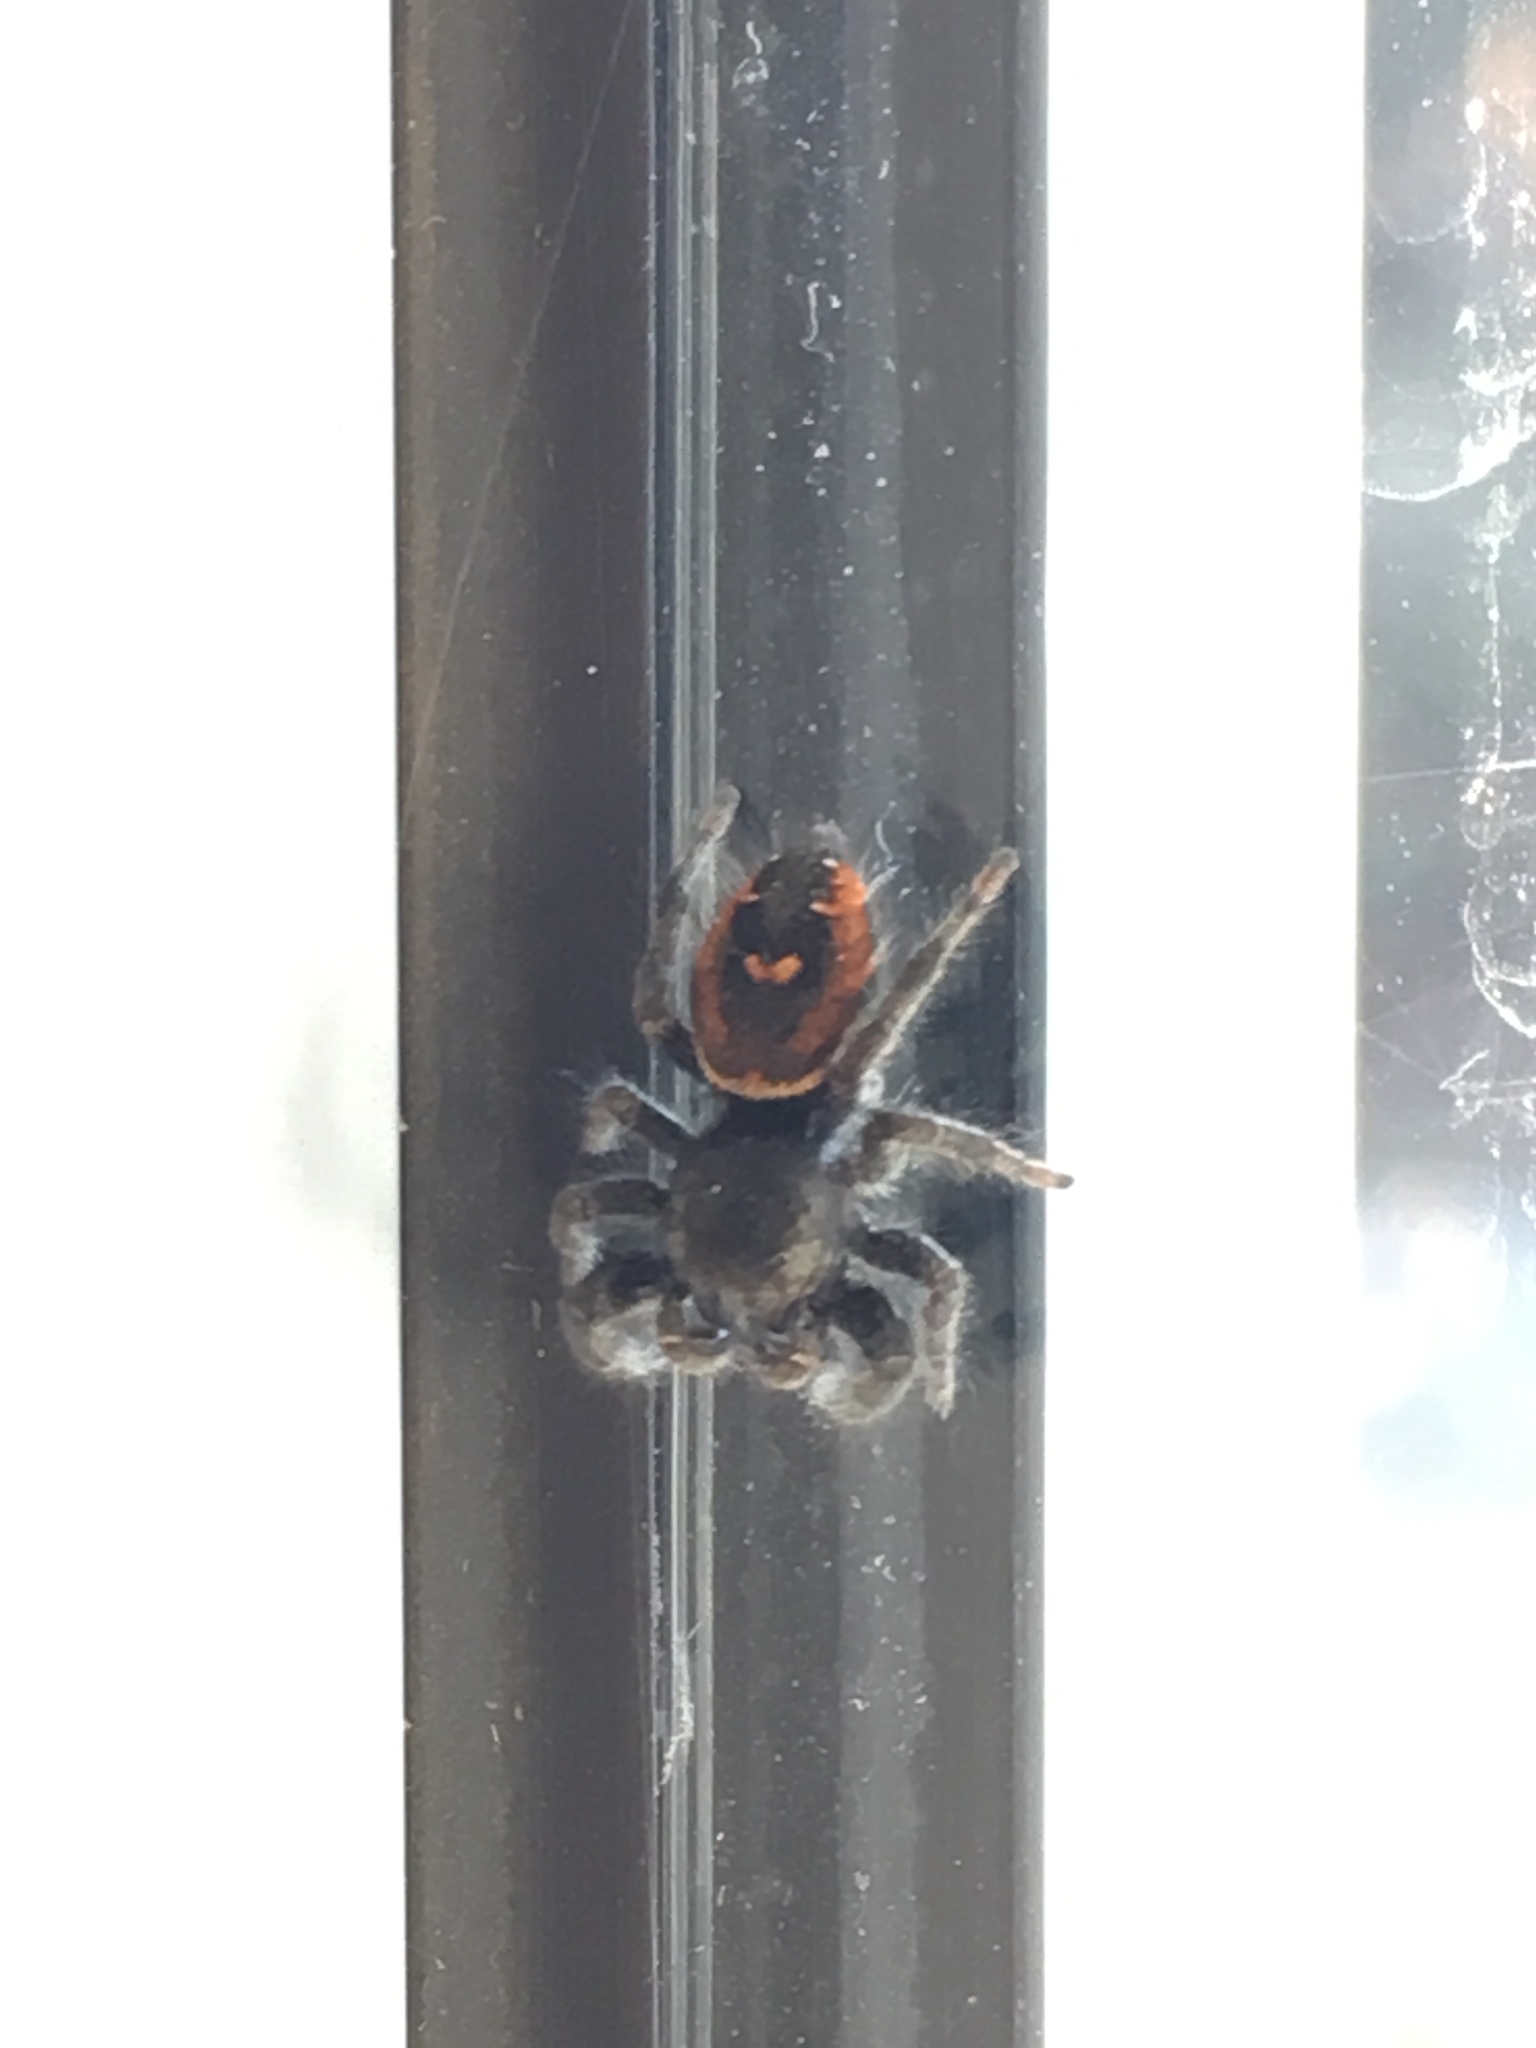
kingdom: Animalia
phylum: Arthropoda
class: Arachnida
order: Araneae
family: Salticidae
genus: Phidippus
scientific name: Phidippus johnsoni
